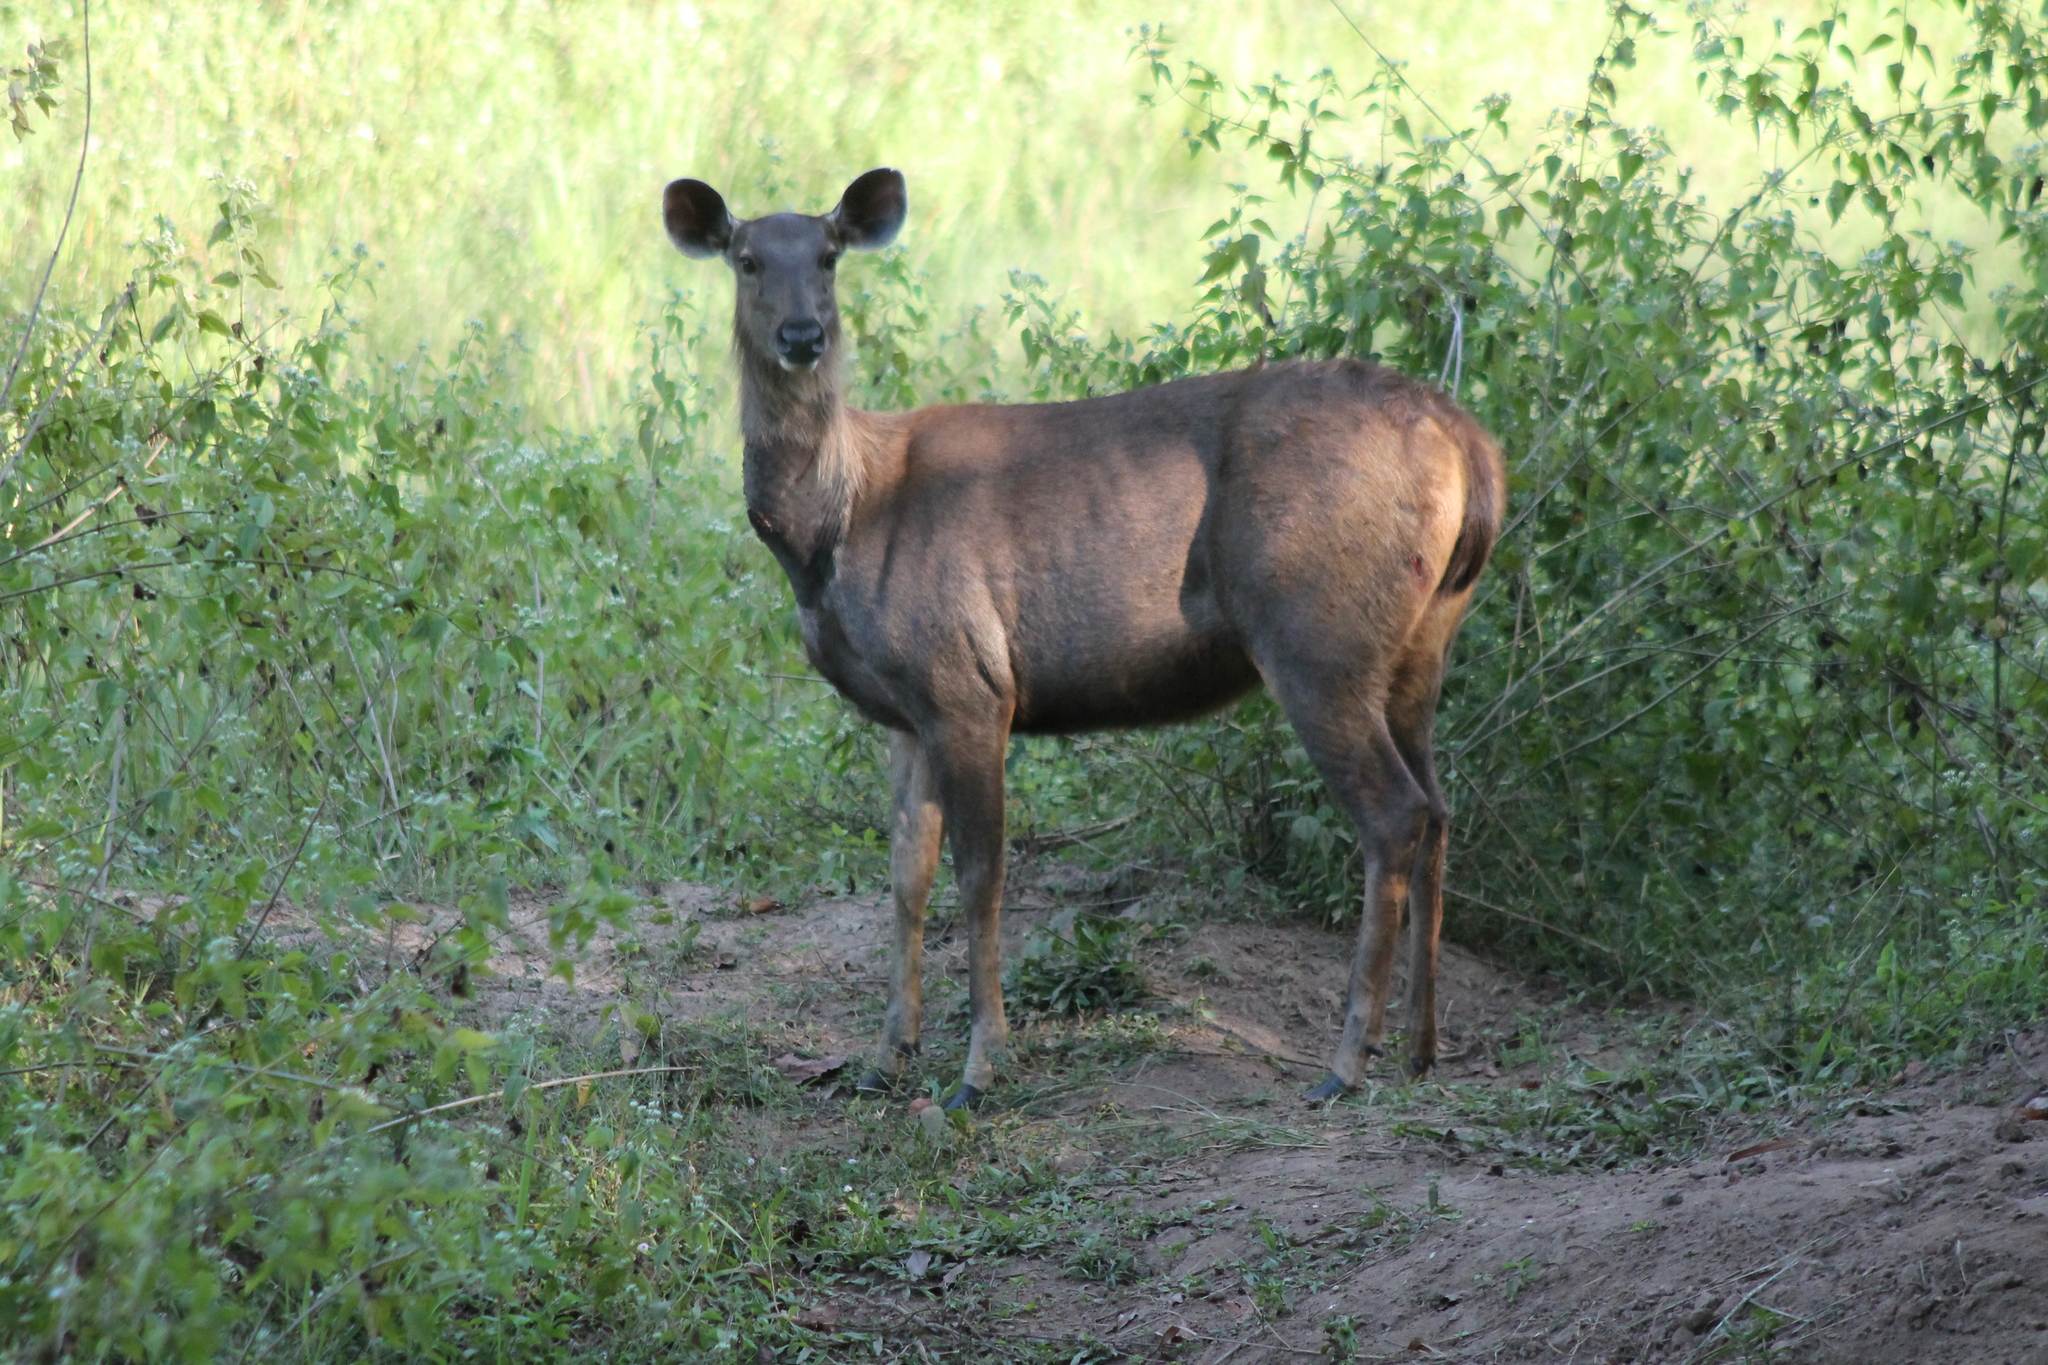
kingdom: Animalia
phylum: Chordata
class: Mammalia
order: Artiodactyla
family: Cervidae
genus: Rusa
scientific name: Rusa unicolor
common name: Sambar
